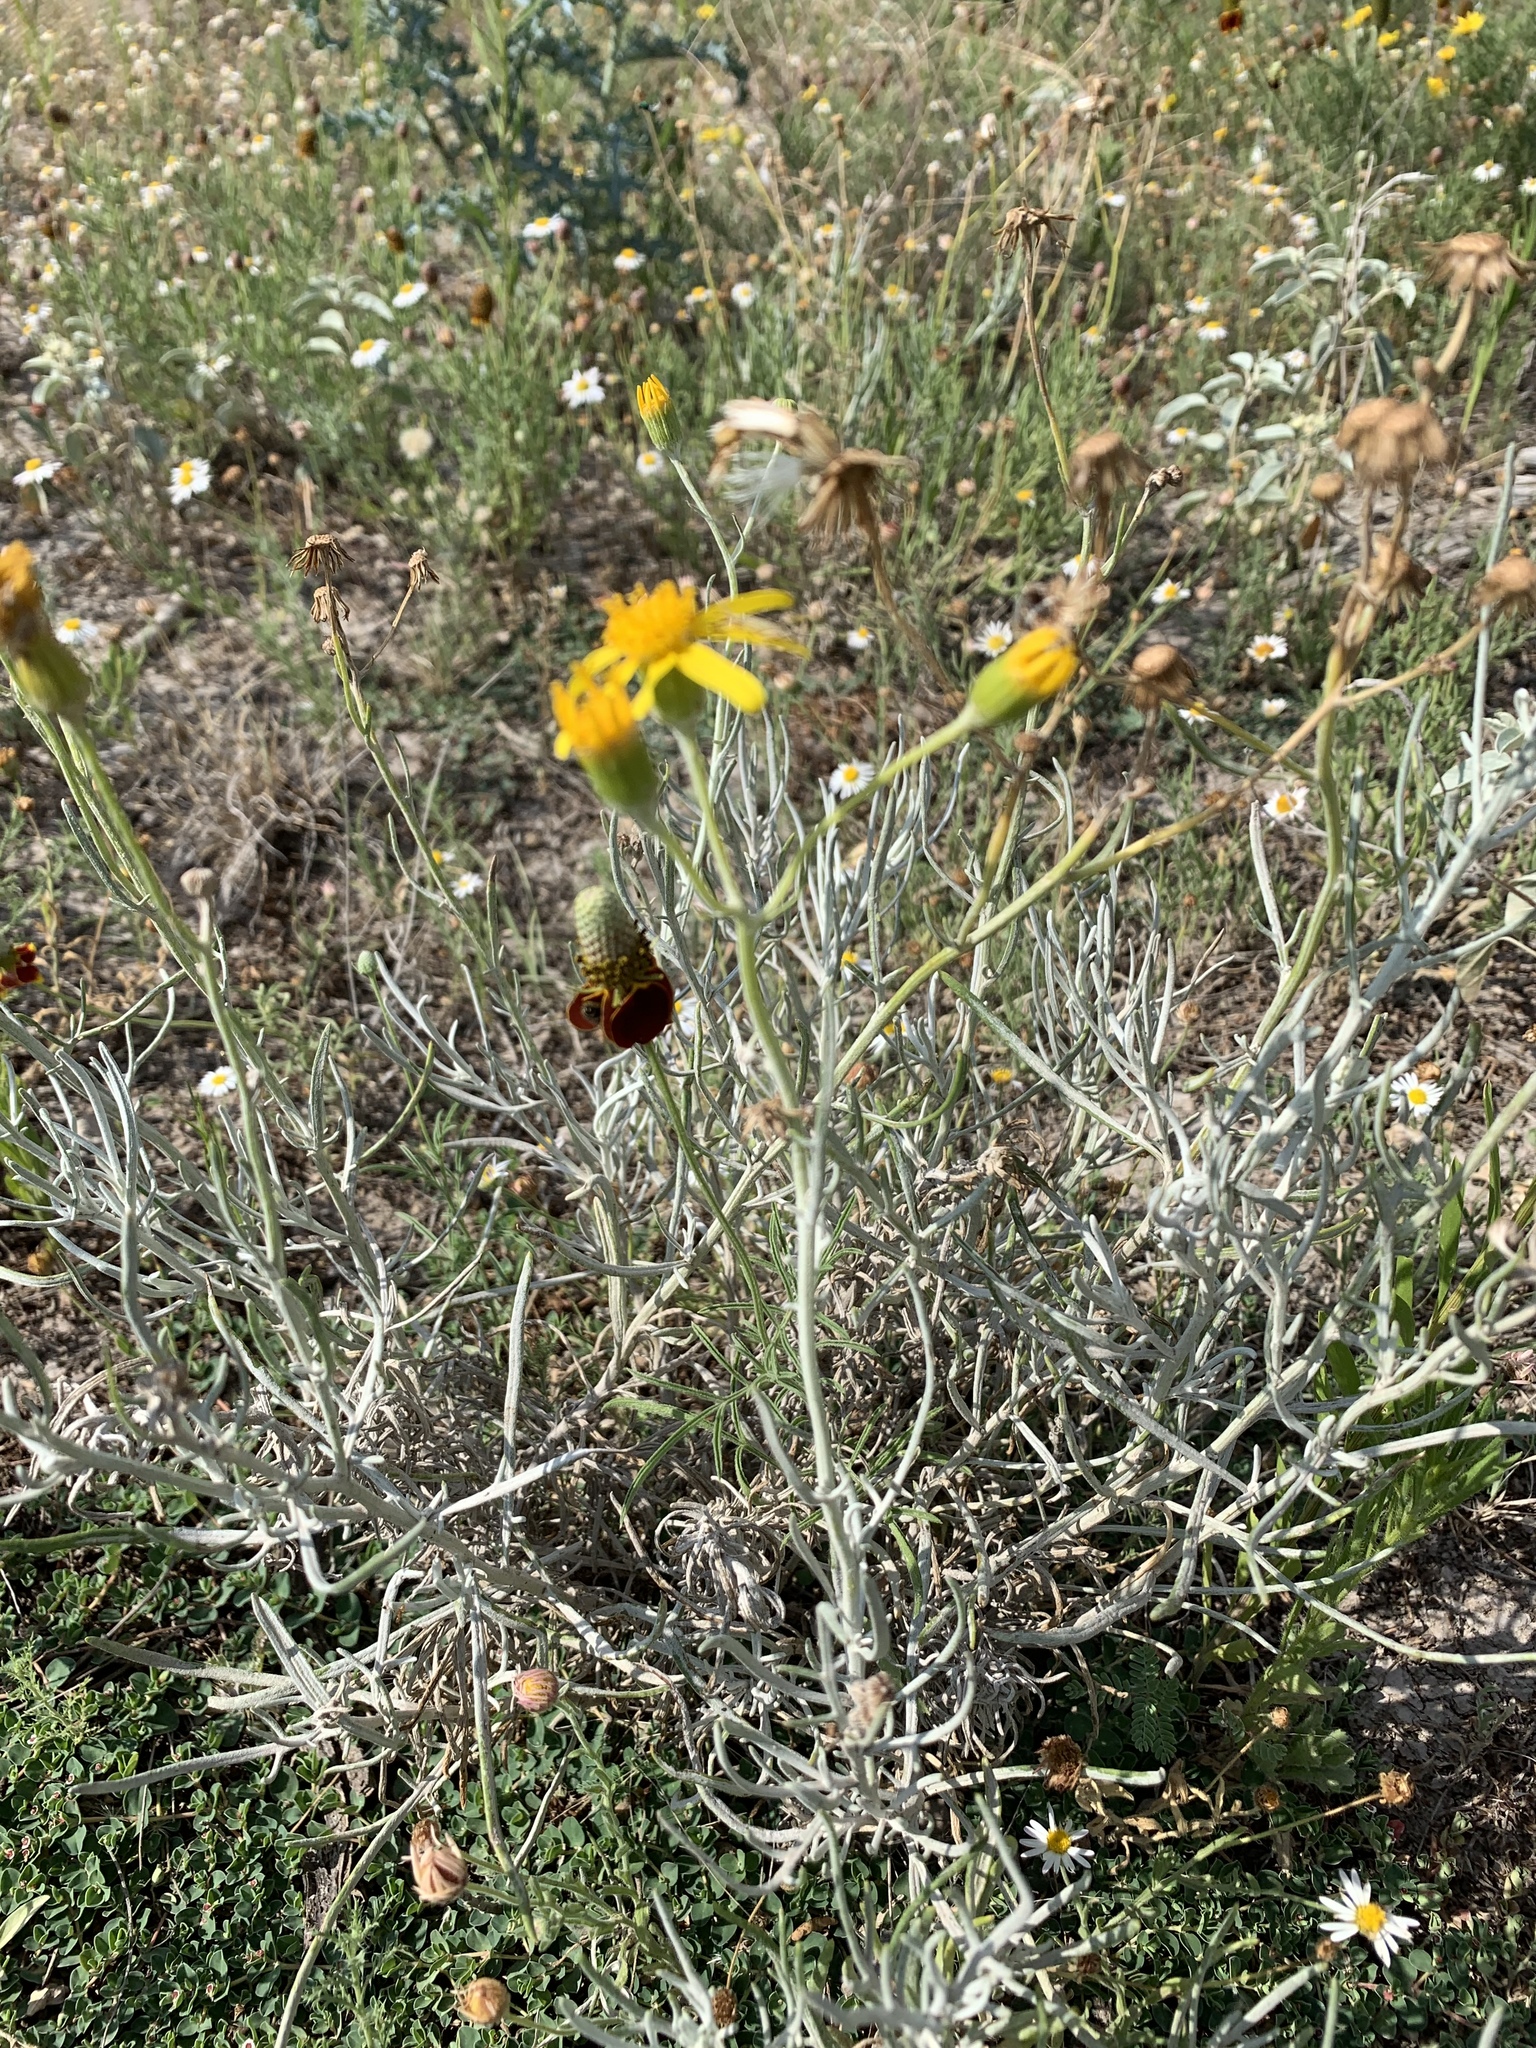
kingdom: Plantae
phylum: Tracheophyta
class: Magnoliopsida
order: Asterales
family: Asteraceae
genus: Senecio
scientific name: Senecio flaccidus
